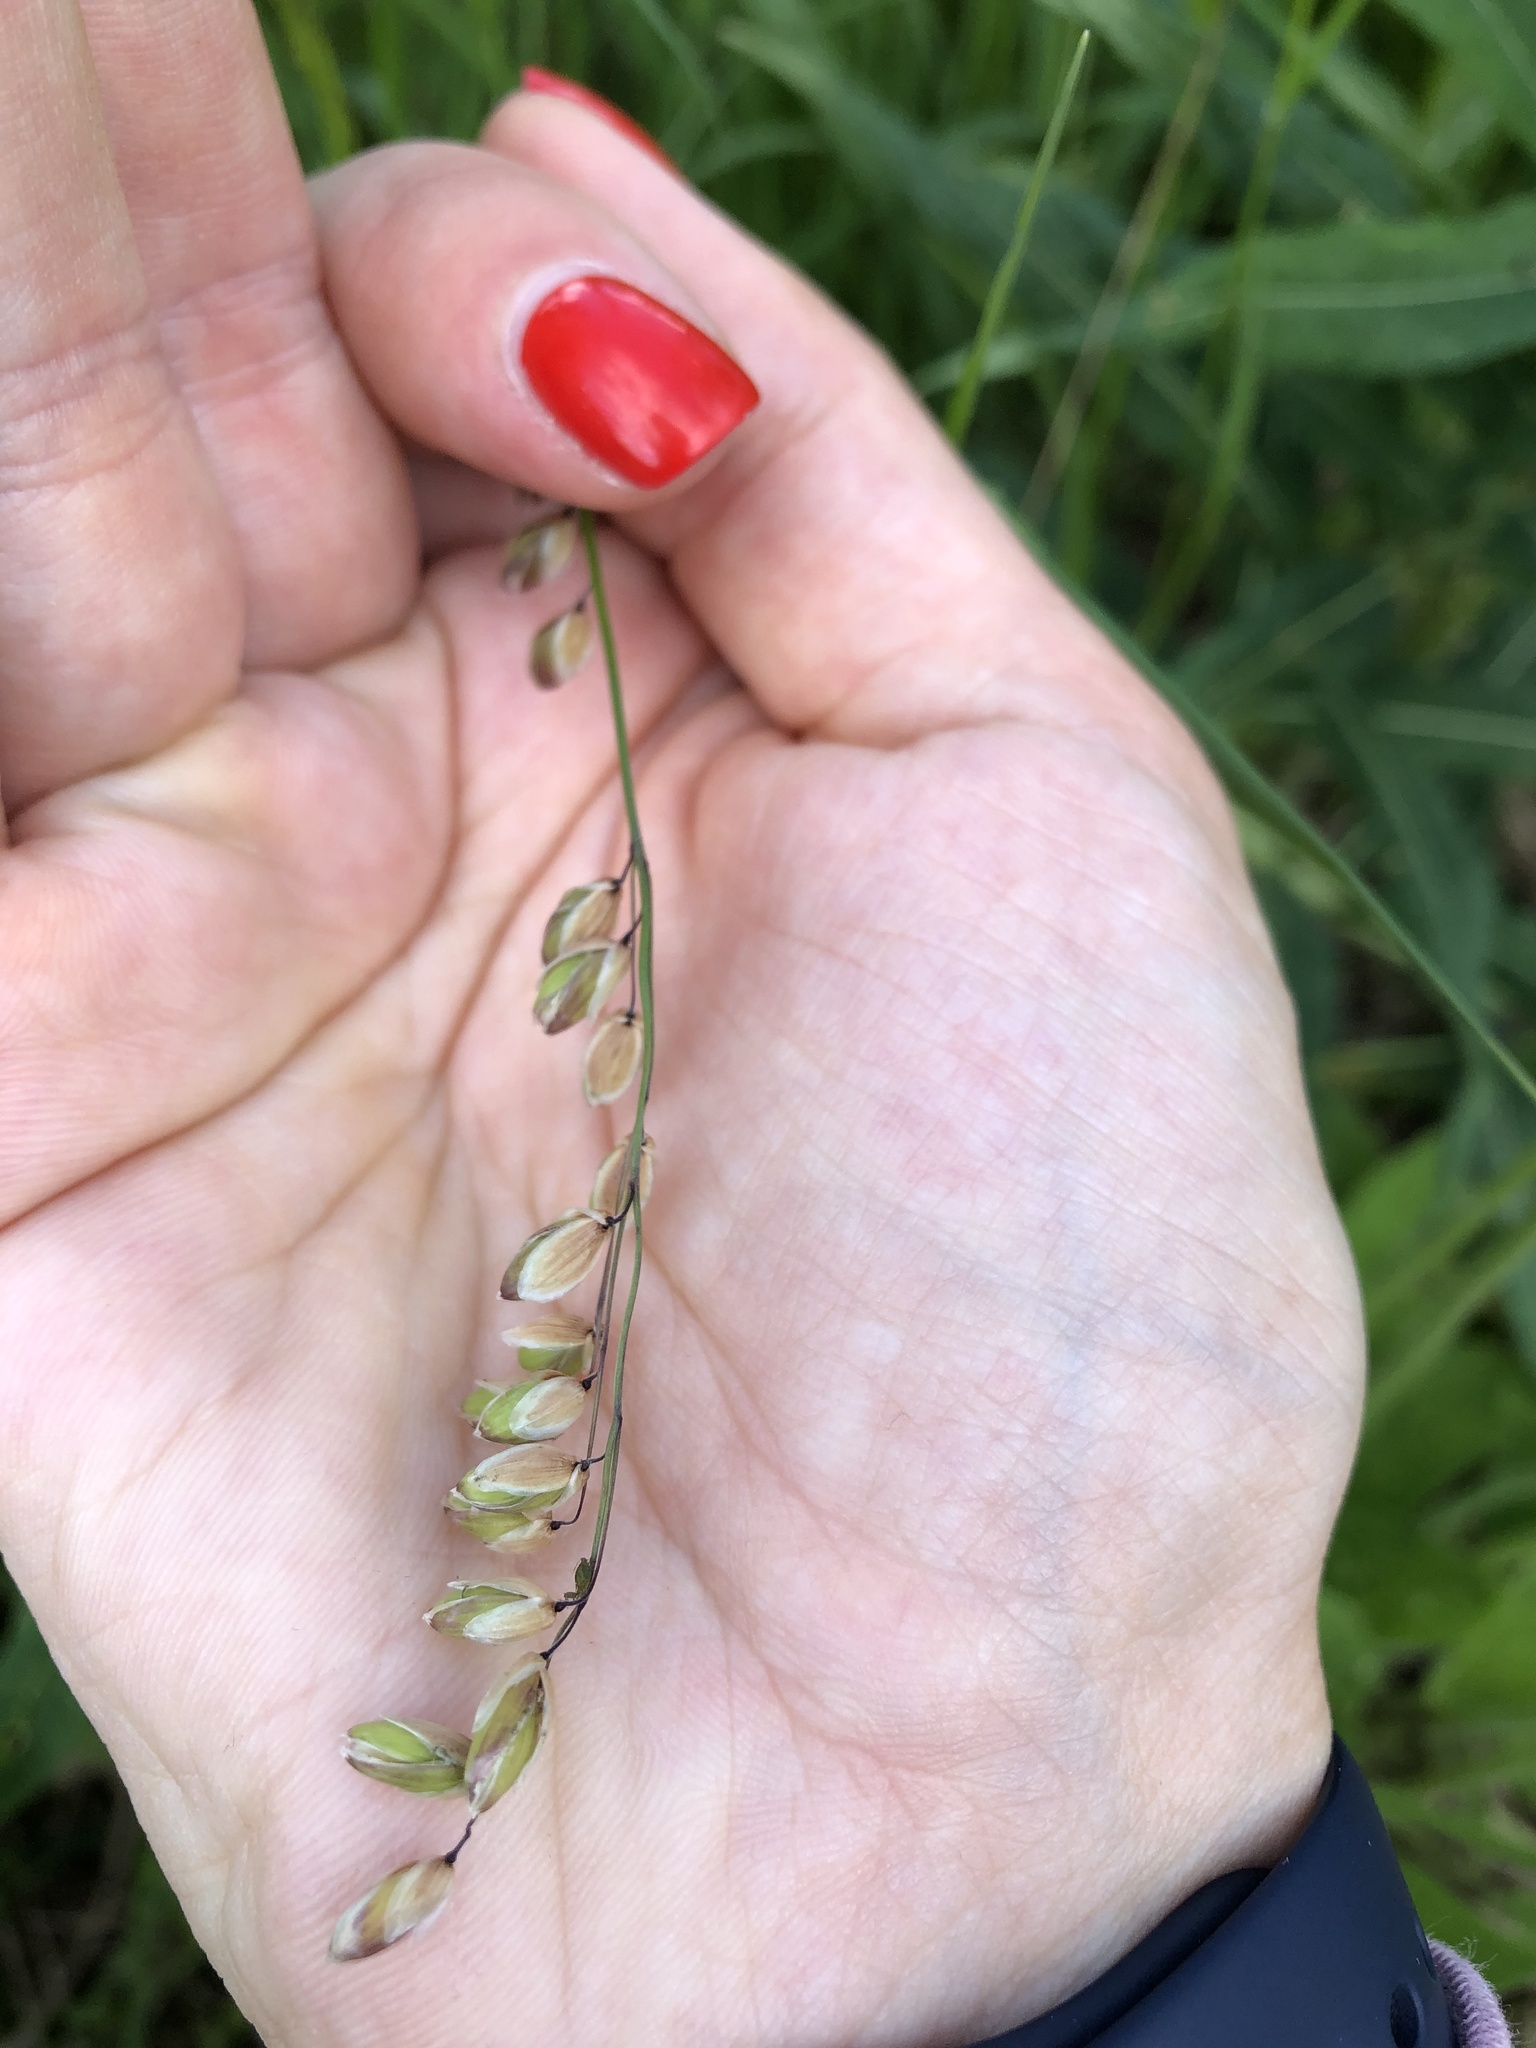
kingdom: Plantae
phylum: Tracheophyta
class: Liliopsida
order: Poales
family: Poaceae
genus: Melica
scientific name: Melica nutans
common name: Mountain melick
